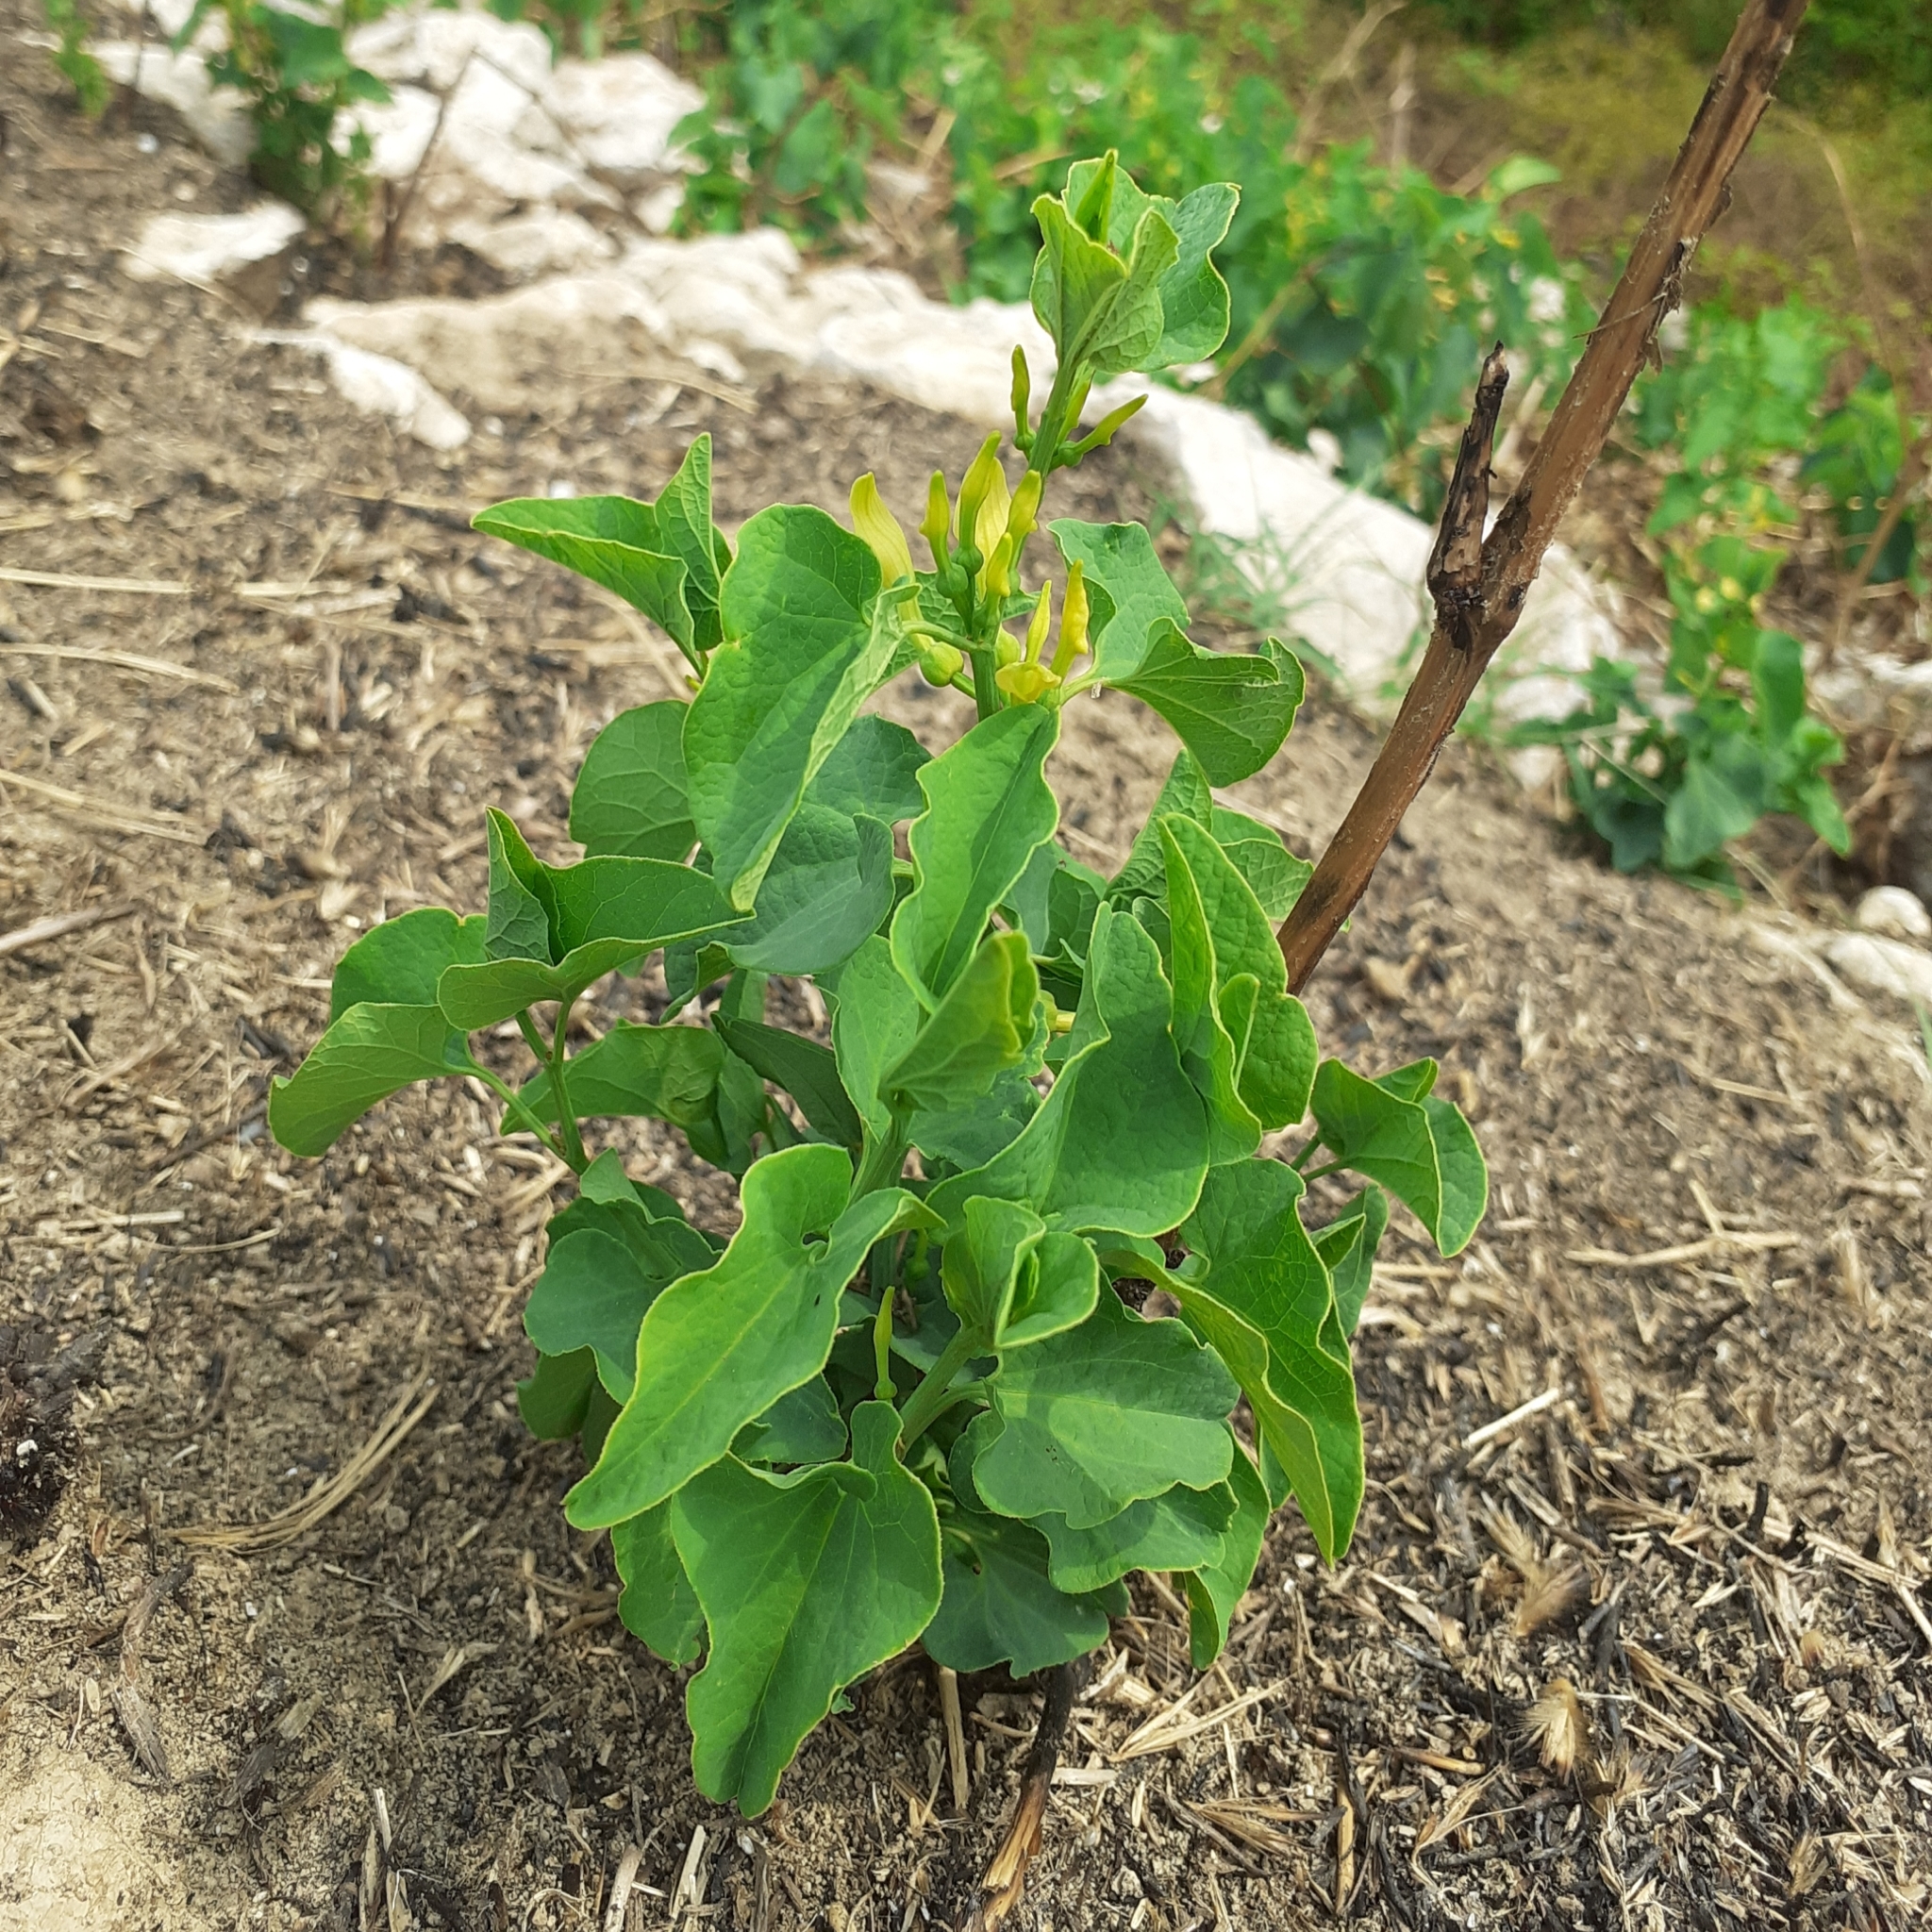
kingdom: Plantae
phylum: Tracheophyta
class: Magnoliopsida
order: Piperales
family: Aristolochiaceae
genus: Aristolochia
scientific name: Aristolochia clematitis
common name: Birthwort
